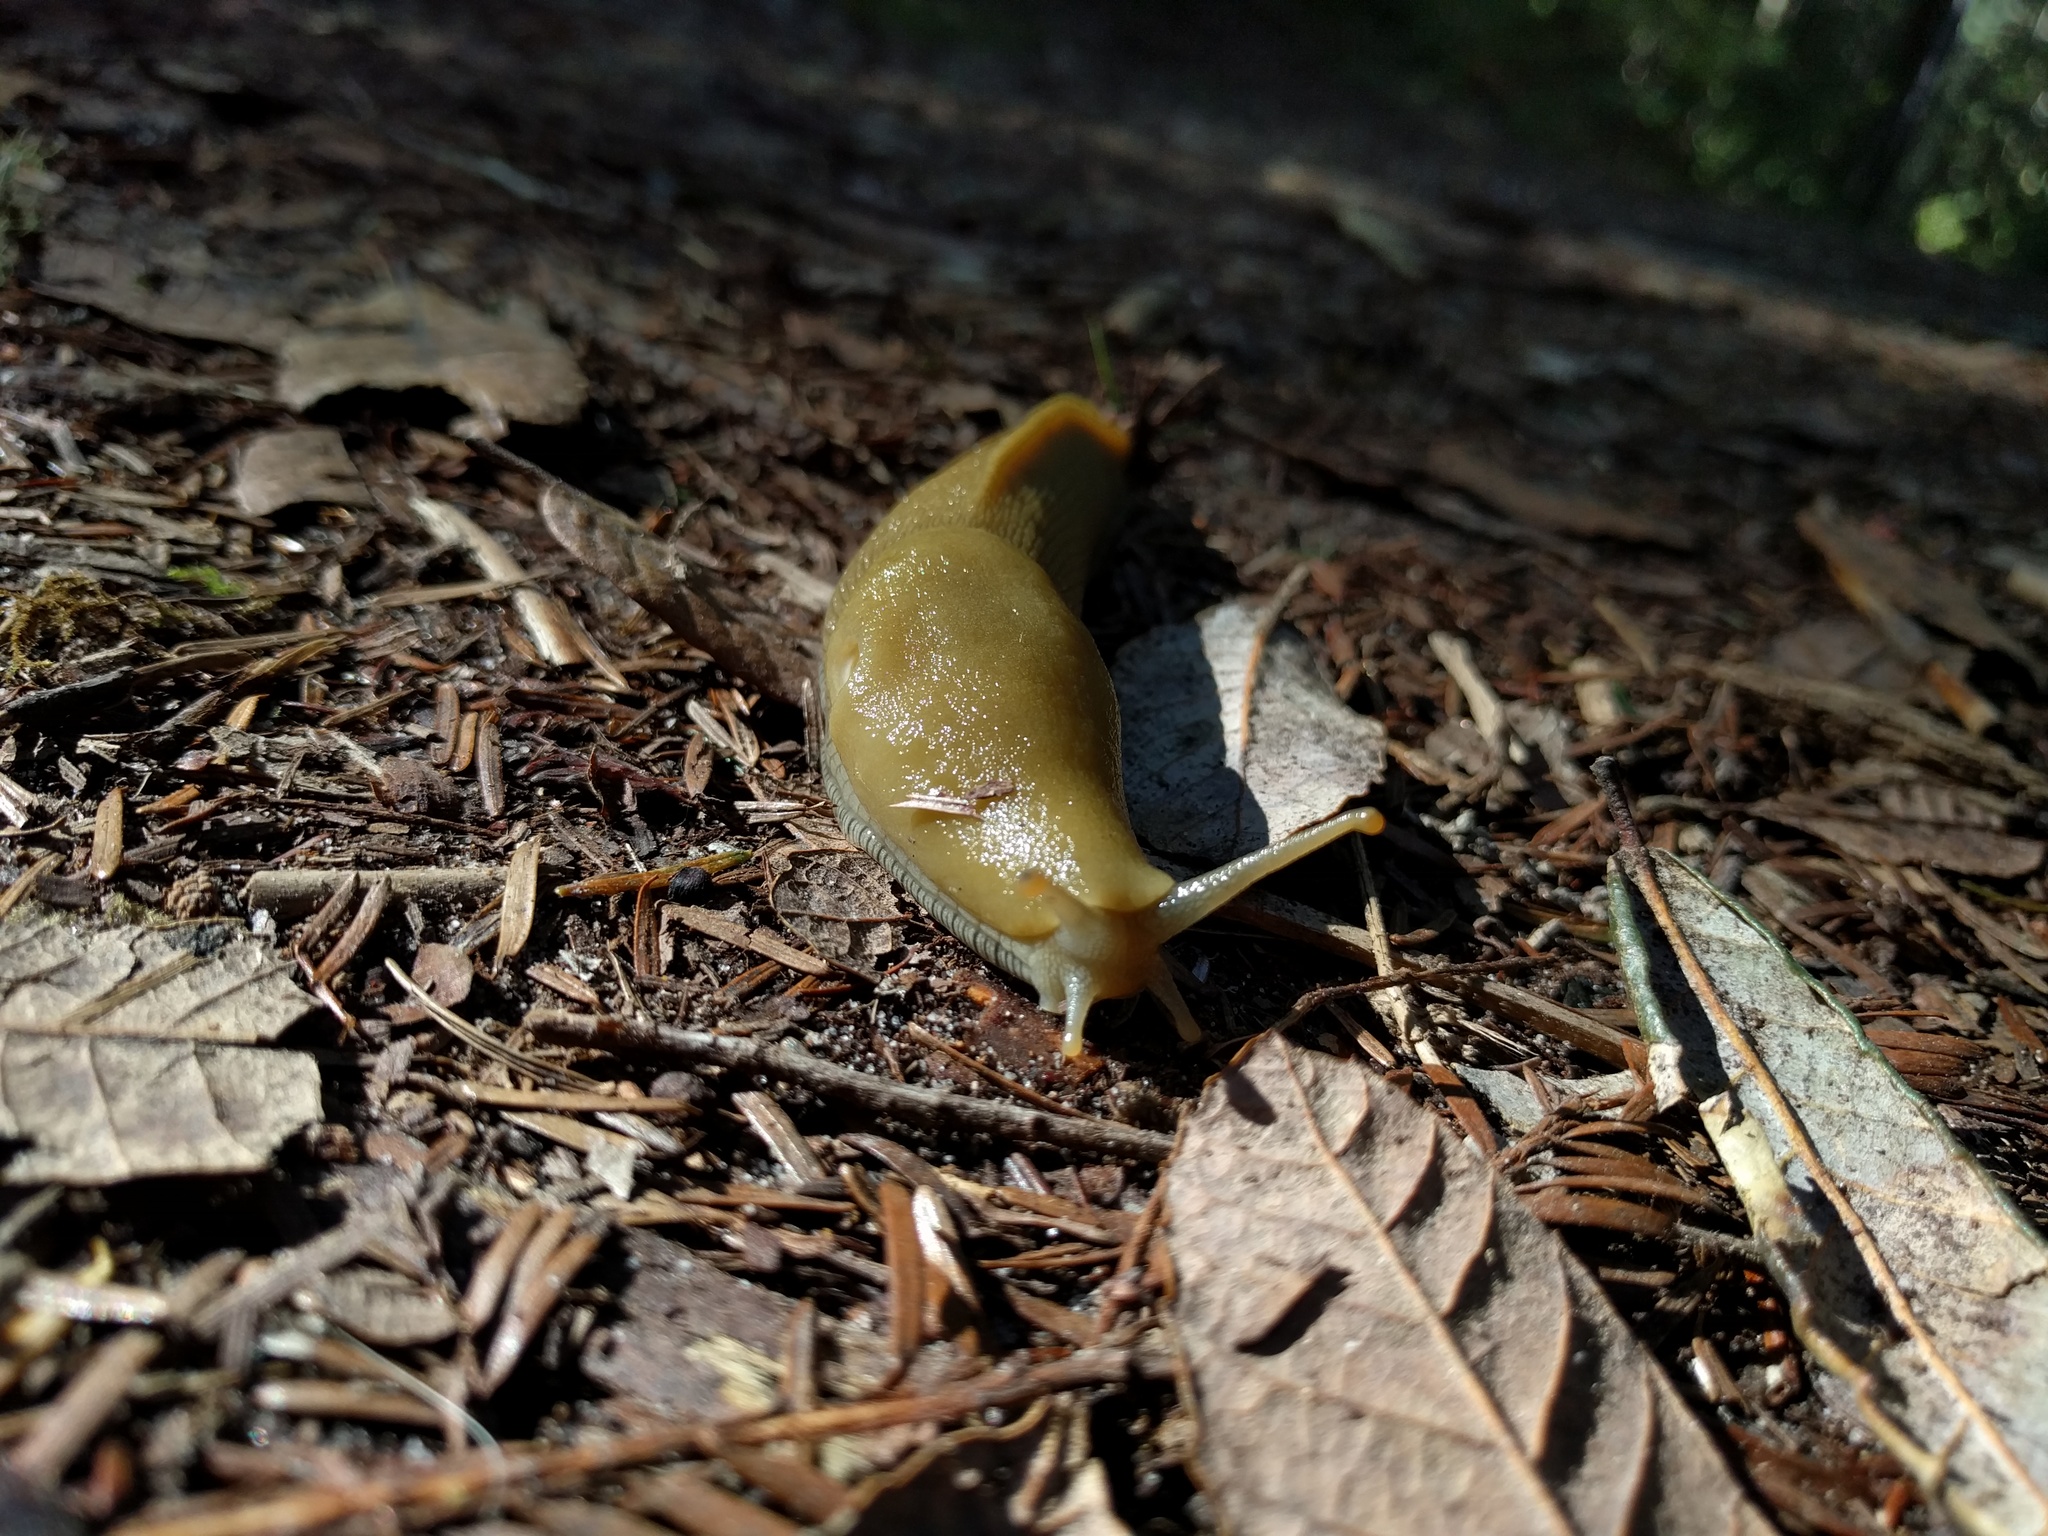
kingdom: Animalia
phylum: Mollusca
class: Gastropoda
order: Stylommatophora
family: Ariolimacidae
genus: Ariolimax
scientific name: Ariolimax buttoni
